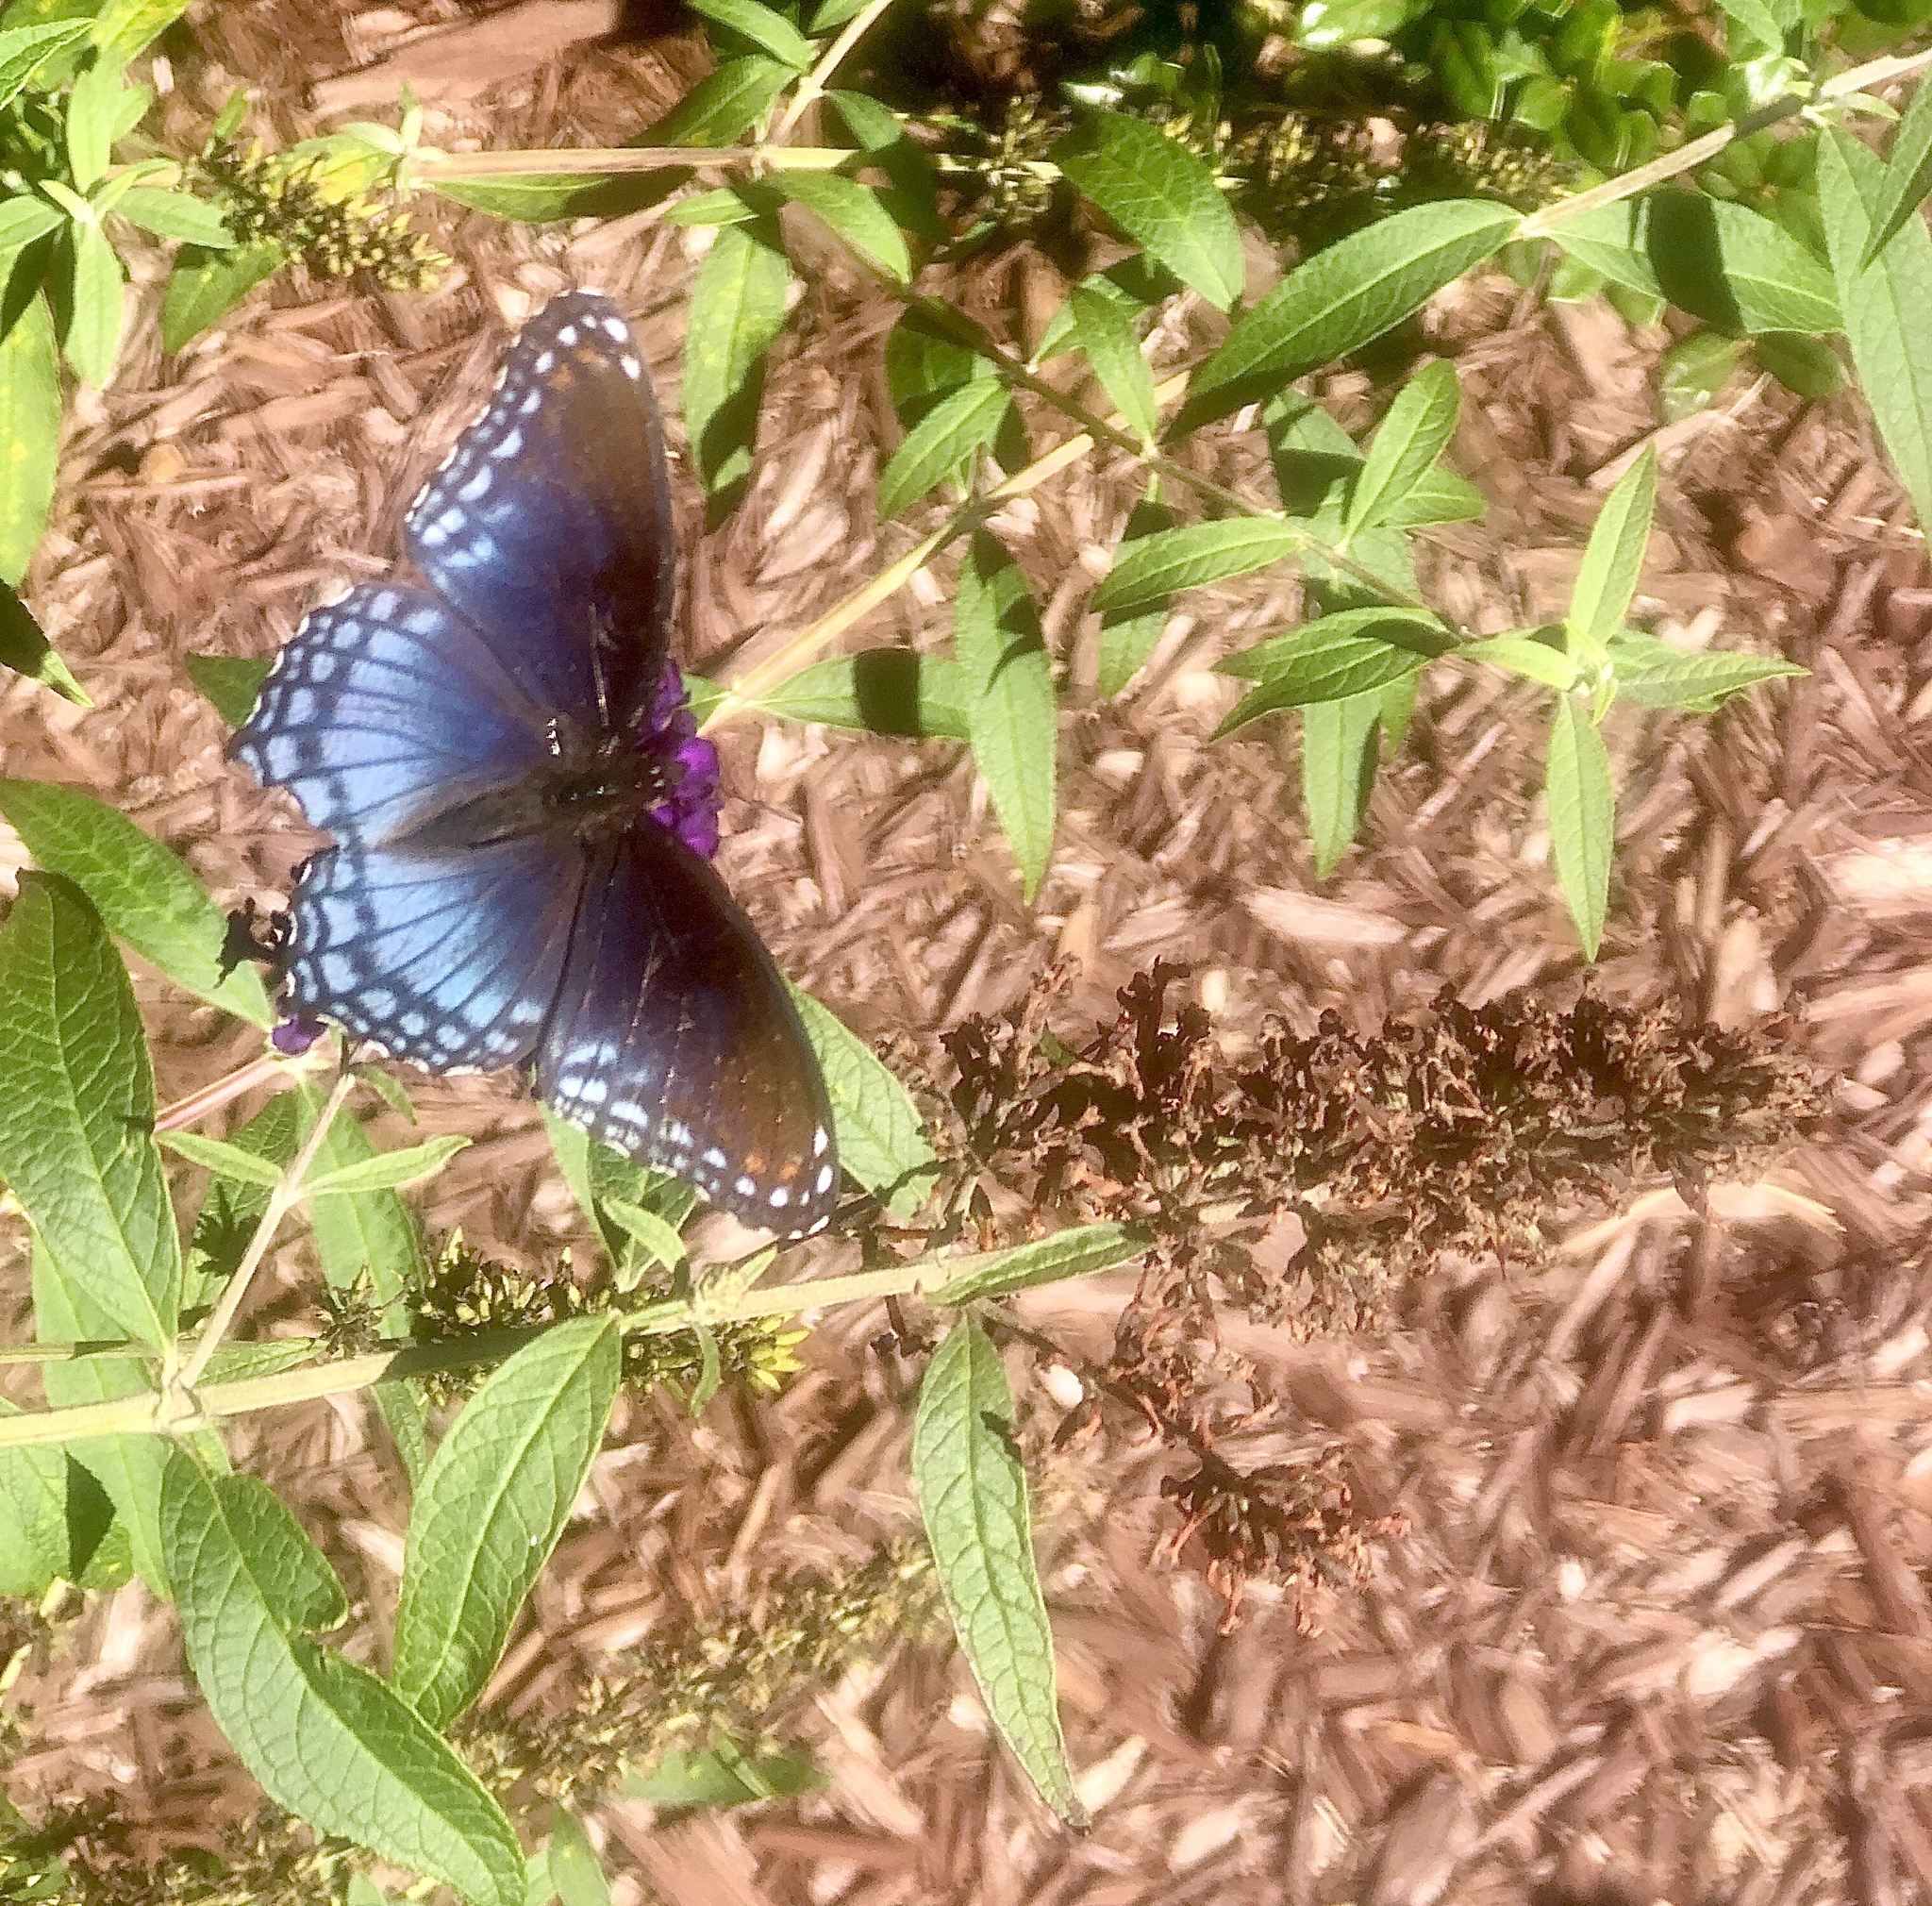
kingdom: Animalia
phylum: Arthropoda
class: Insecta
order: Lepidoptera
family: Nymphalidae
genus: Limenitis
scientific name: Limenitis astyanax
